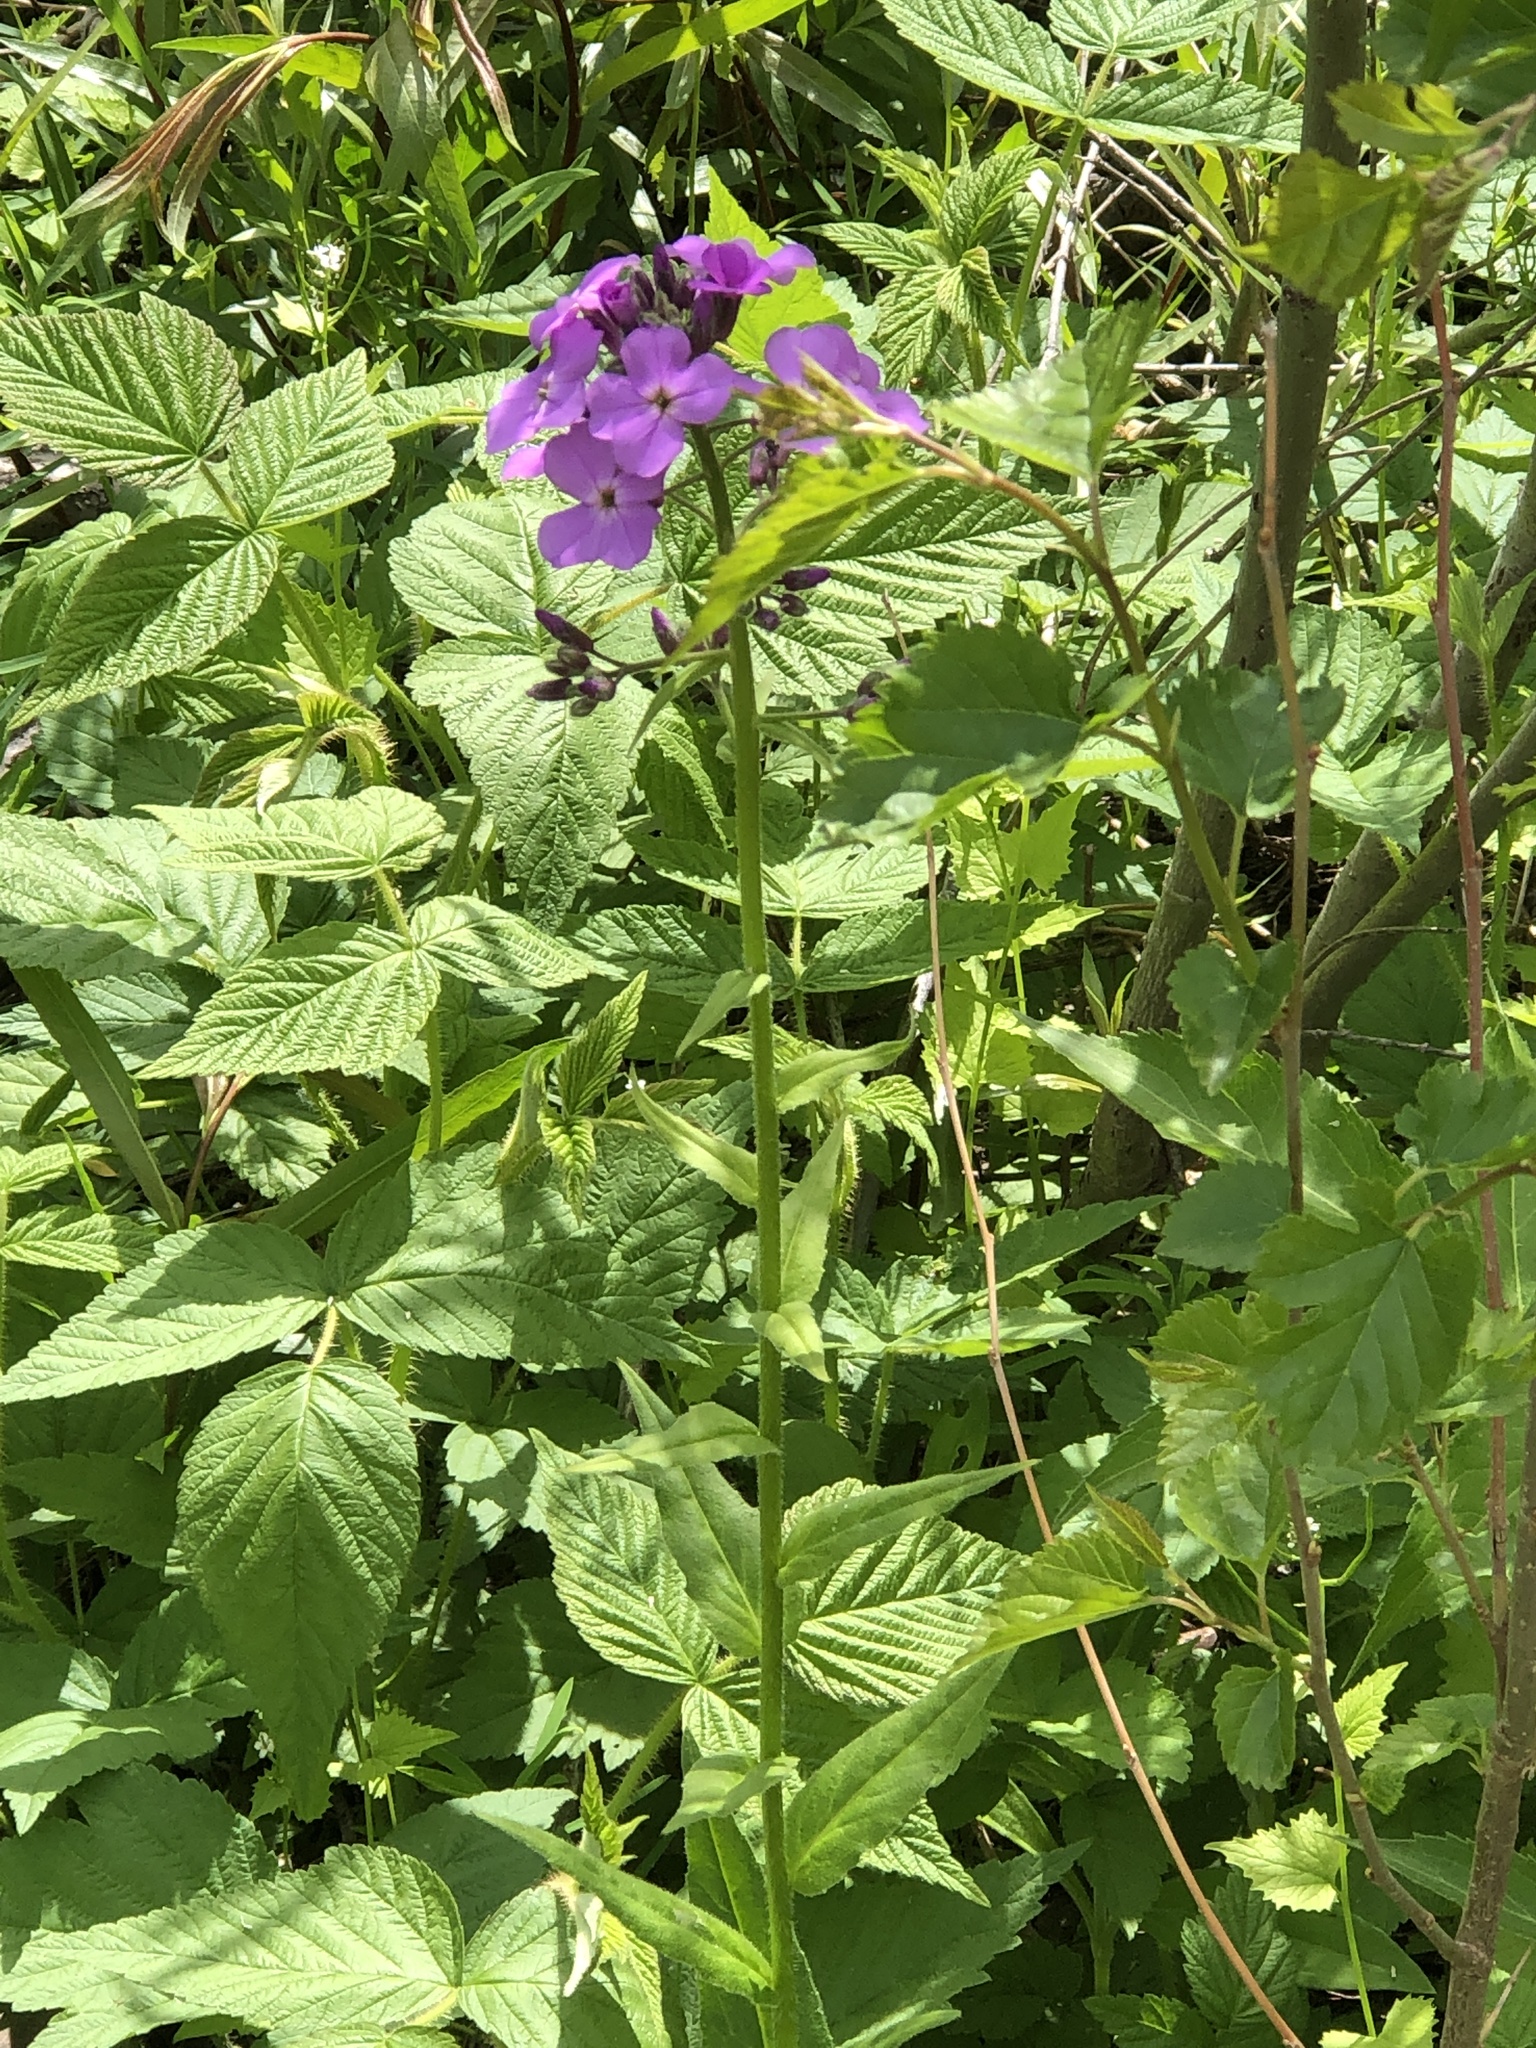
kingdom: Plantae
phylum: Tracheophyta
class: Magnoliopsida
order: Brassicales
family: Brassicaceae
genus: Hesperis
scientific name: Hesperis matronalis
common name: Dame's-violet
